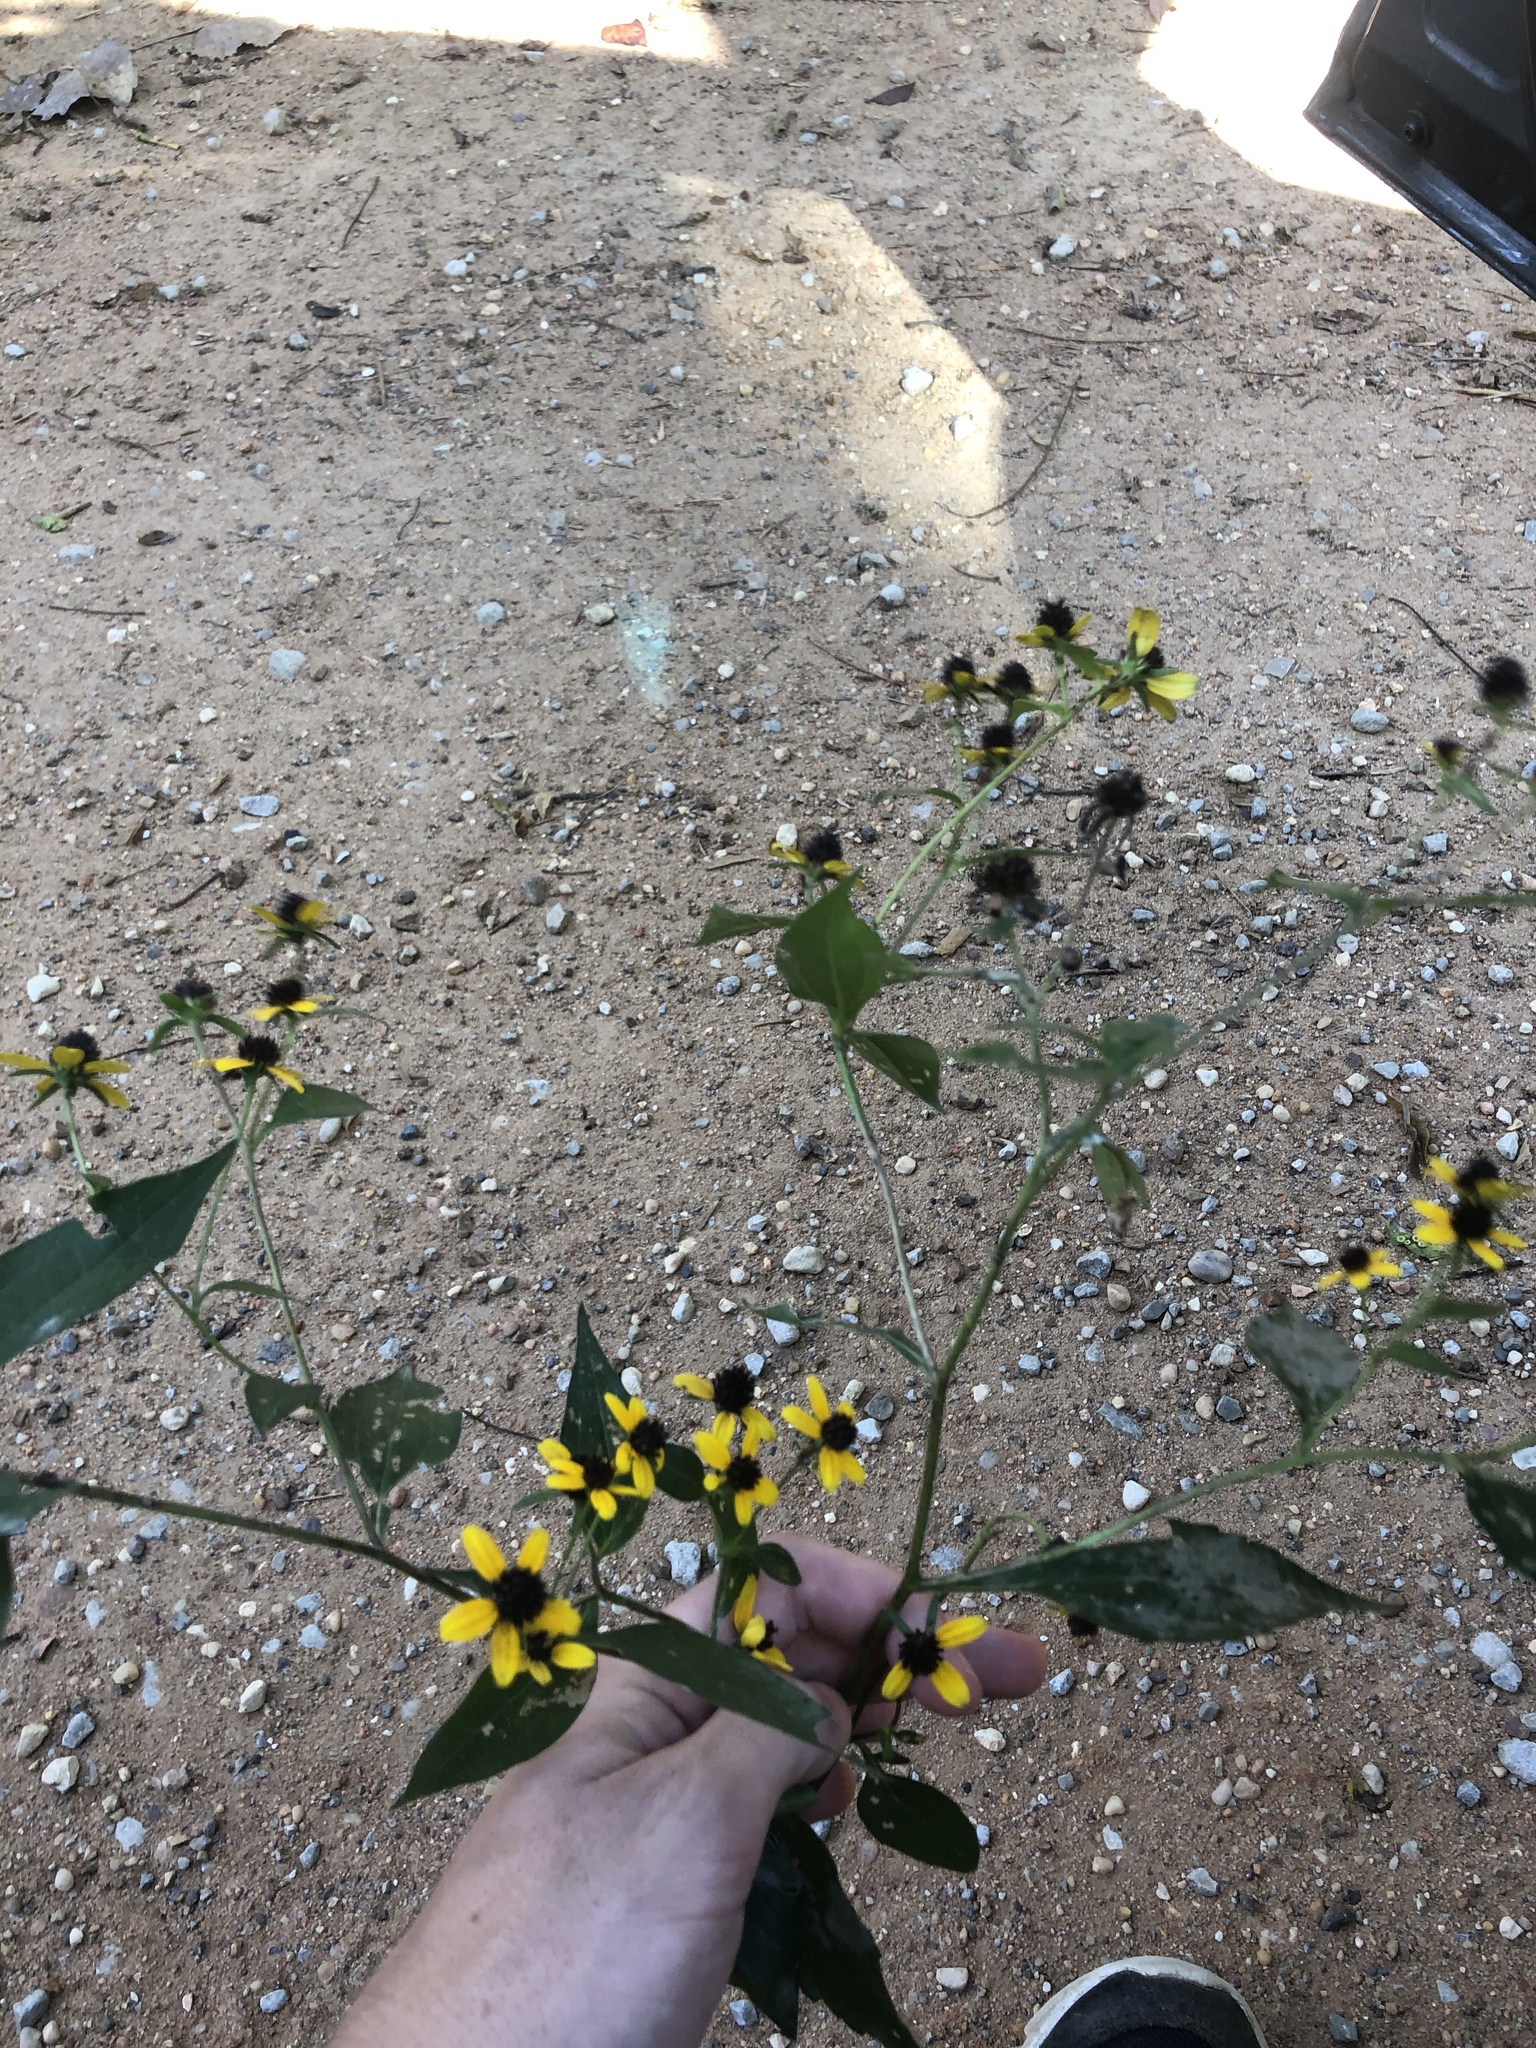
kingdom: Plantae
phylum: Tracheophyta
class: Magnoliopsida
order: Asterales
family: Asteraceae
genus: Rudbeckia
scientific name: Rudbeckia triloba
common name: Thin-leaved coneflower
